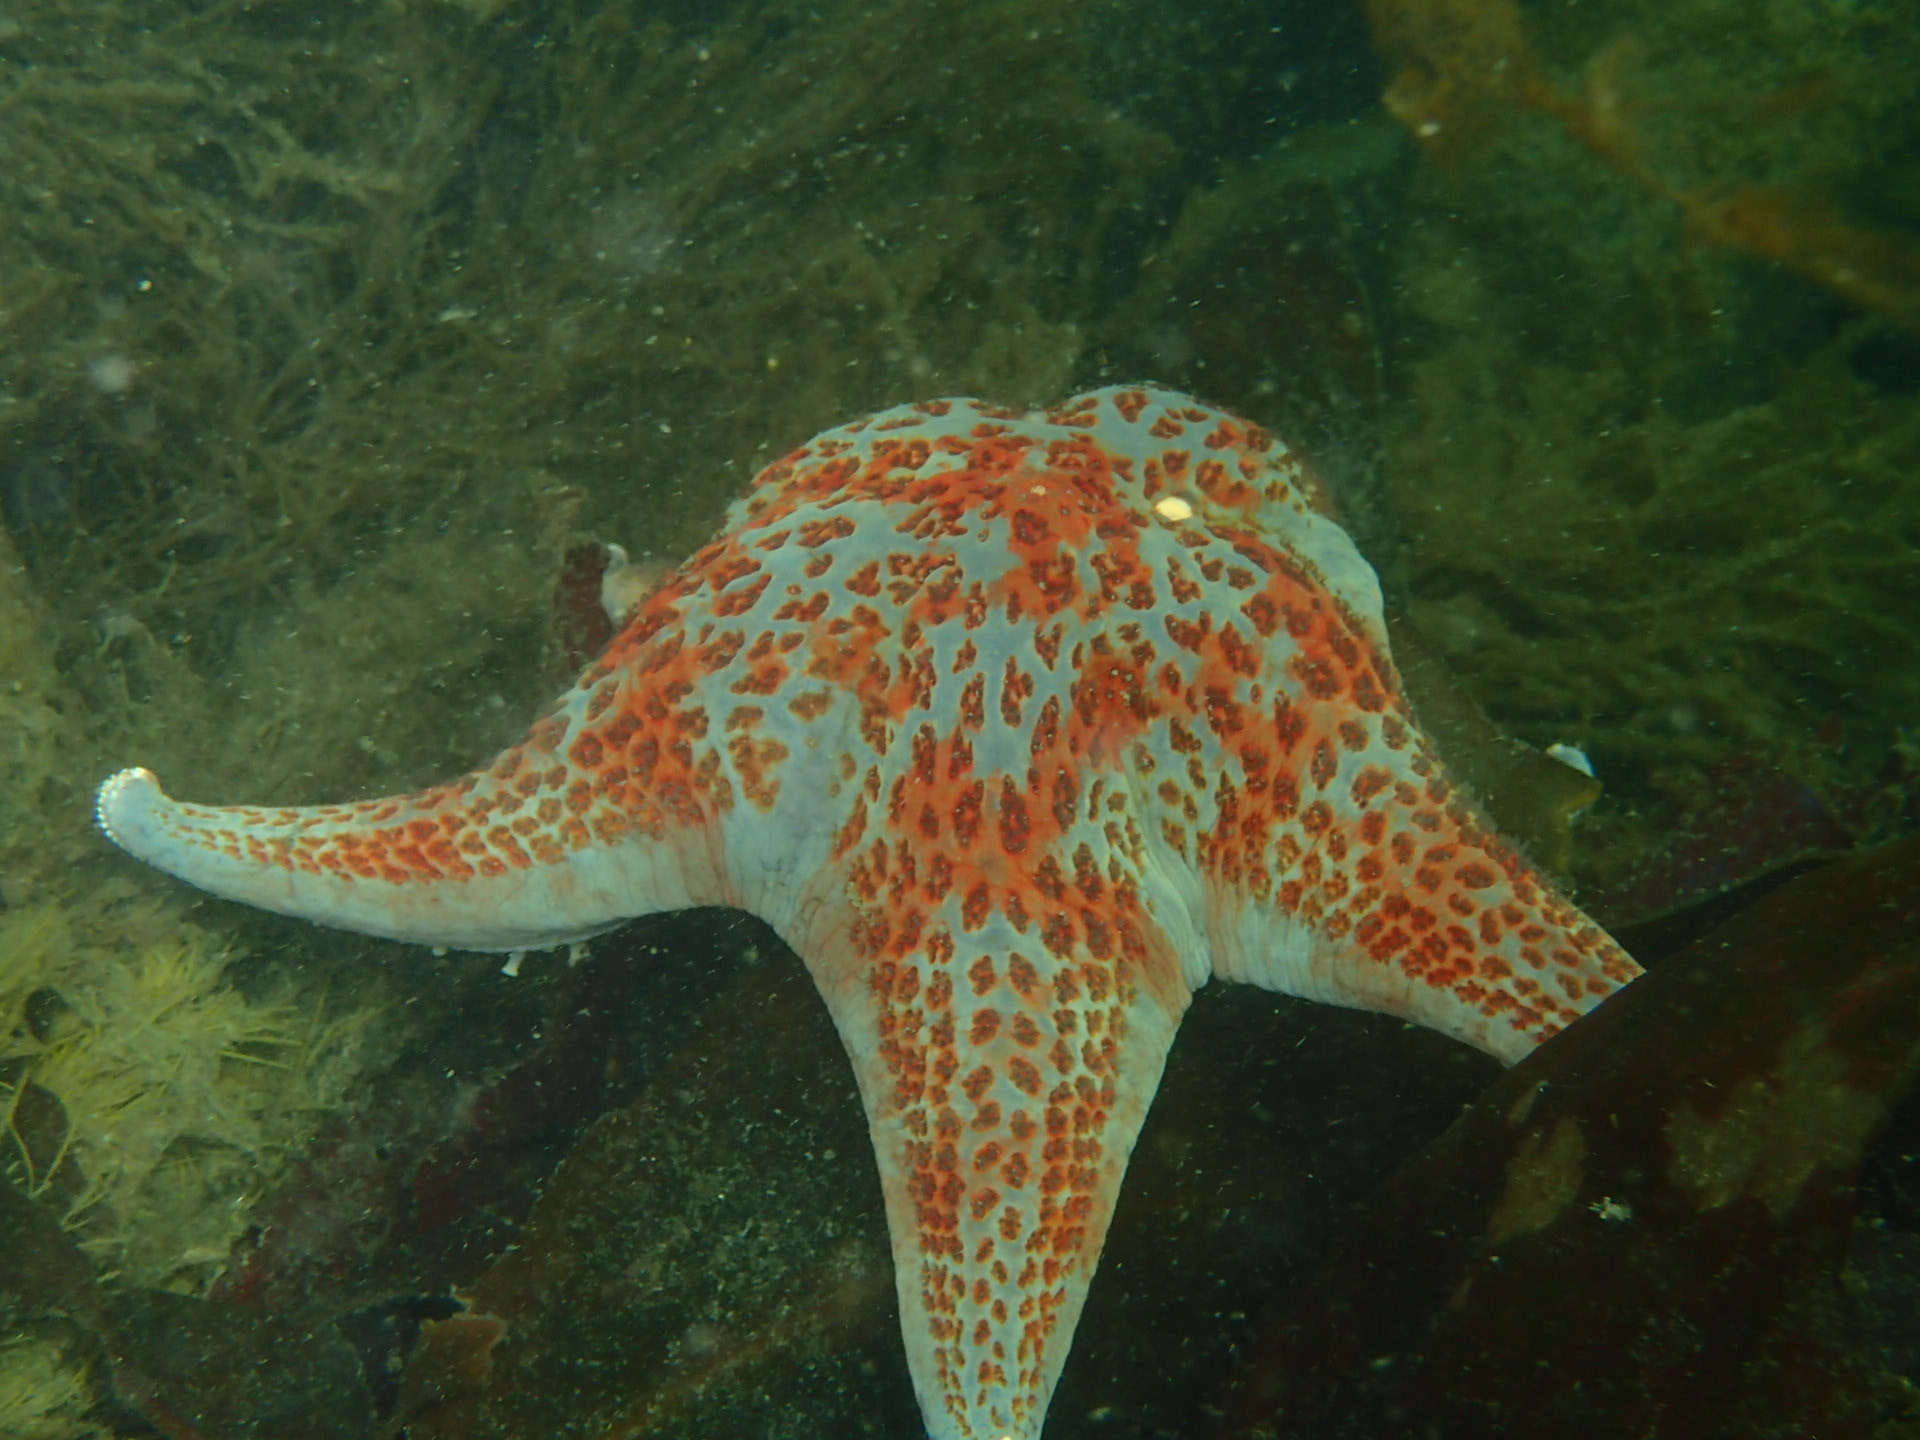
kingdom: Animalia
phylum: Echinodermata
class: Asteroidea
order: Valvatida
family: Asteropseidae
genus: Dermasterias
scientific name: Dermasterias imbricata
